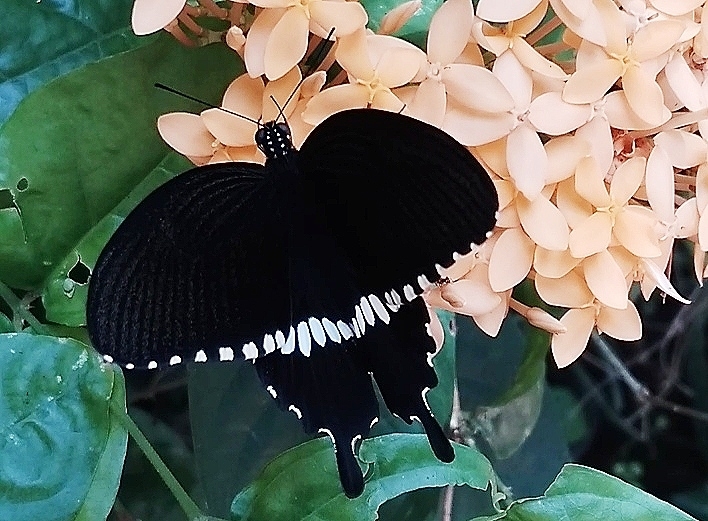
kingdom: Animalia
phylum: Arthropoda
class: Insecta
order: Lepidoptera
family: Papilionidae
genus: Papilio
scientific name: Papilio polytes
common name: Common mormon
